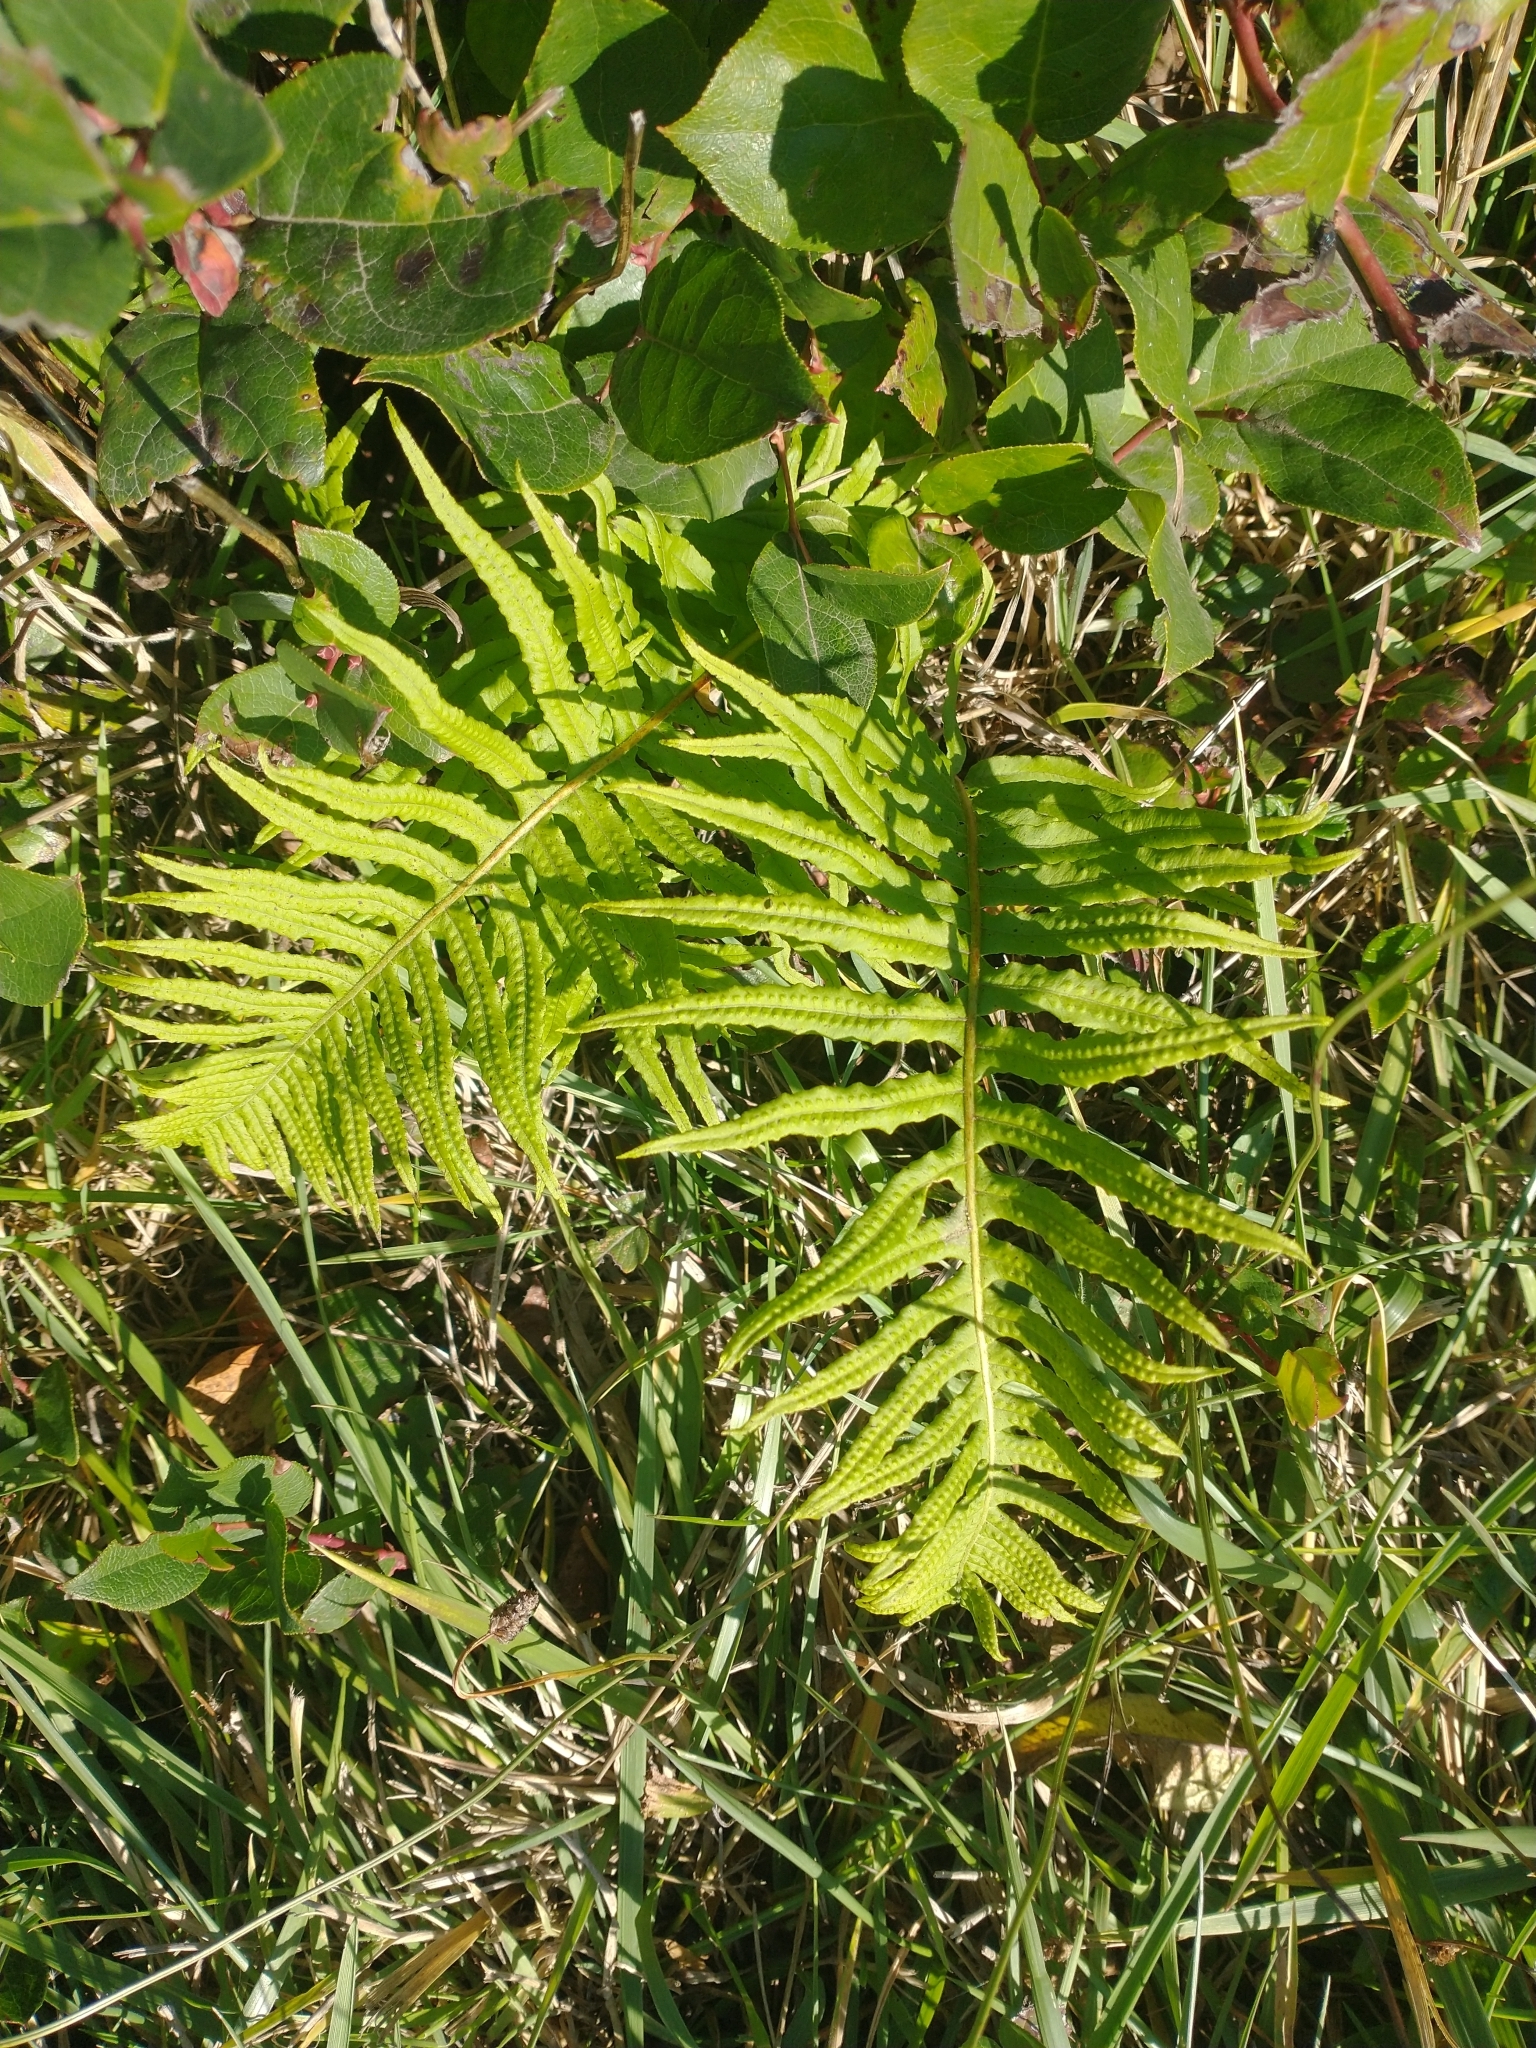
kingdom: Plantae
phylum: Tracheophyta
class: Polypodiopsida
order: Polypodiales
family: Polypodiaceae
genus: Polypodium
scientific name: Polypodium glycyrrhiza
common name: Licorice fern
